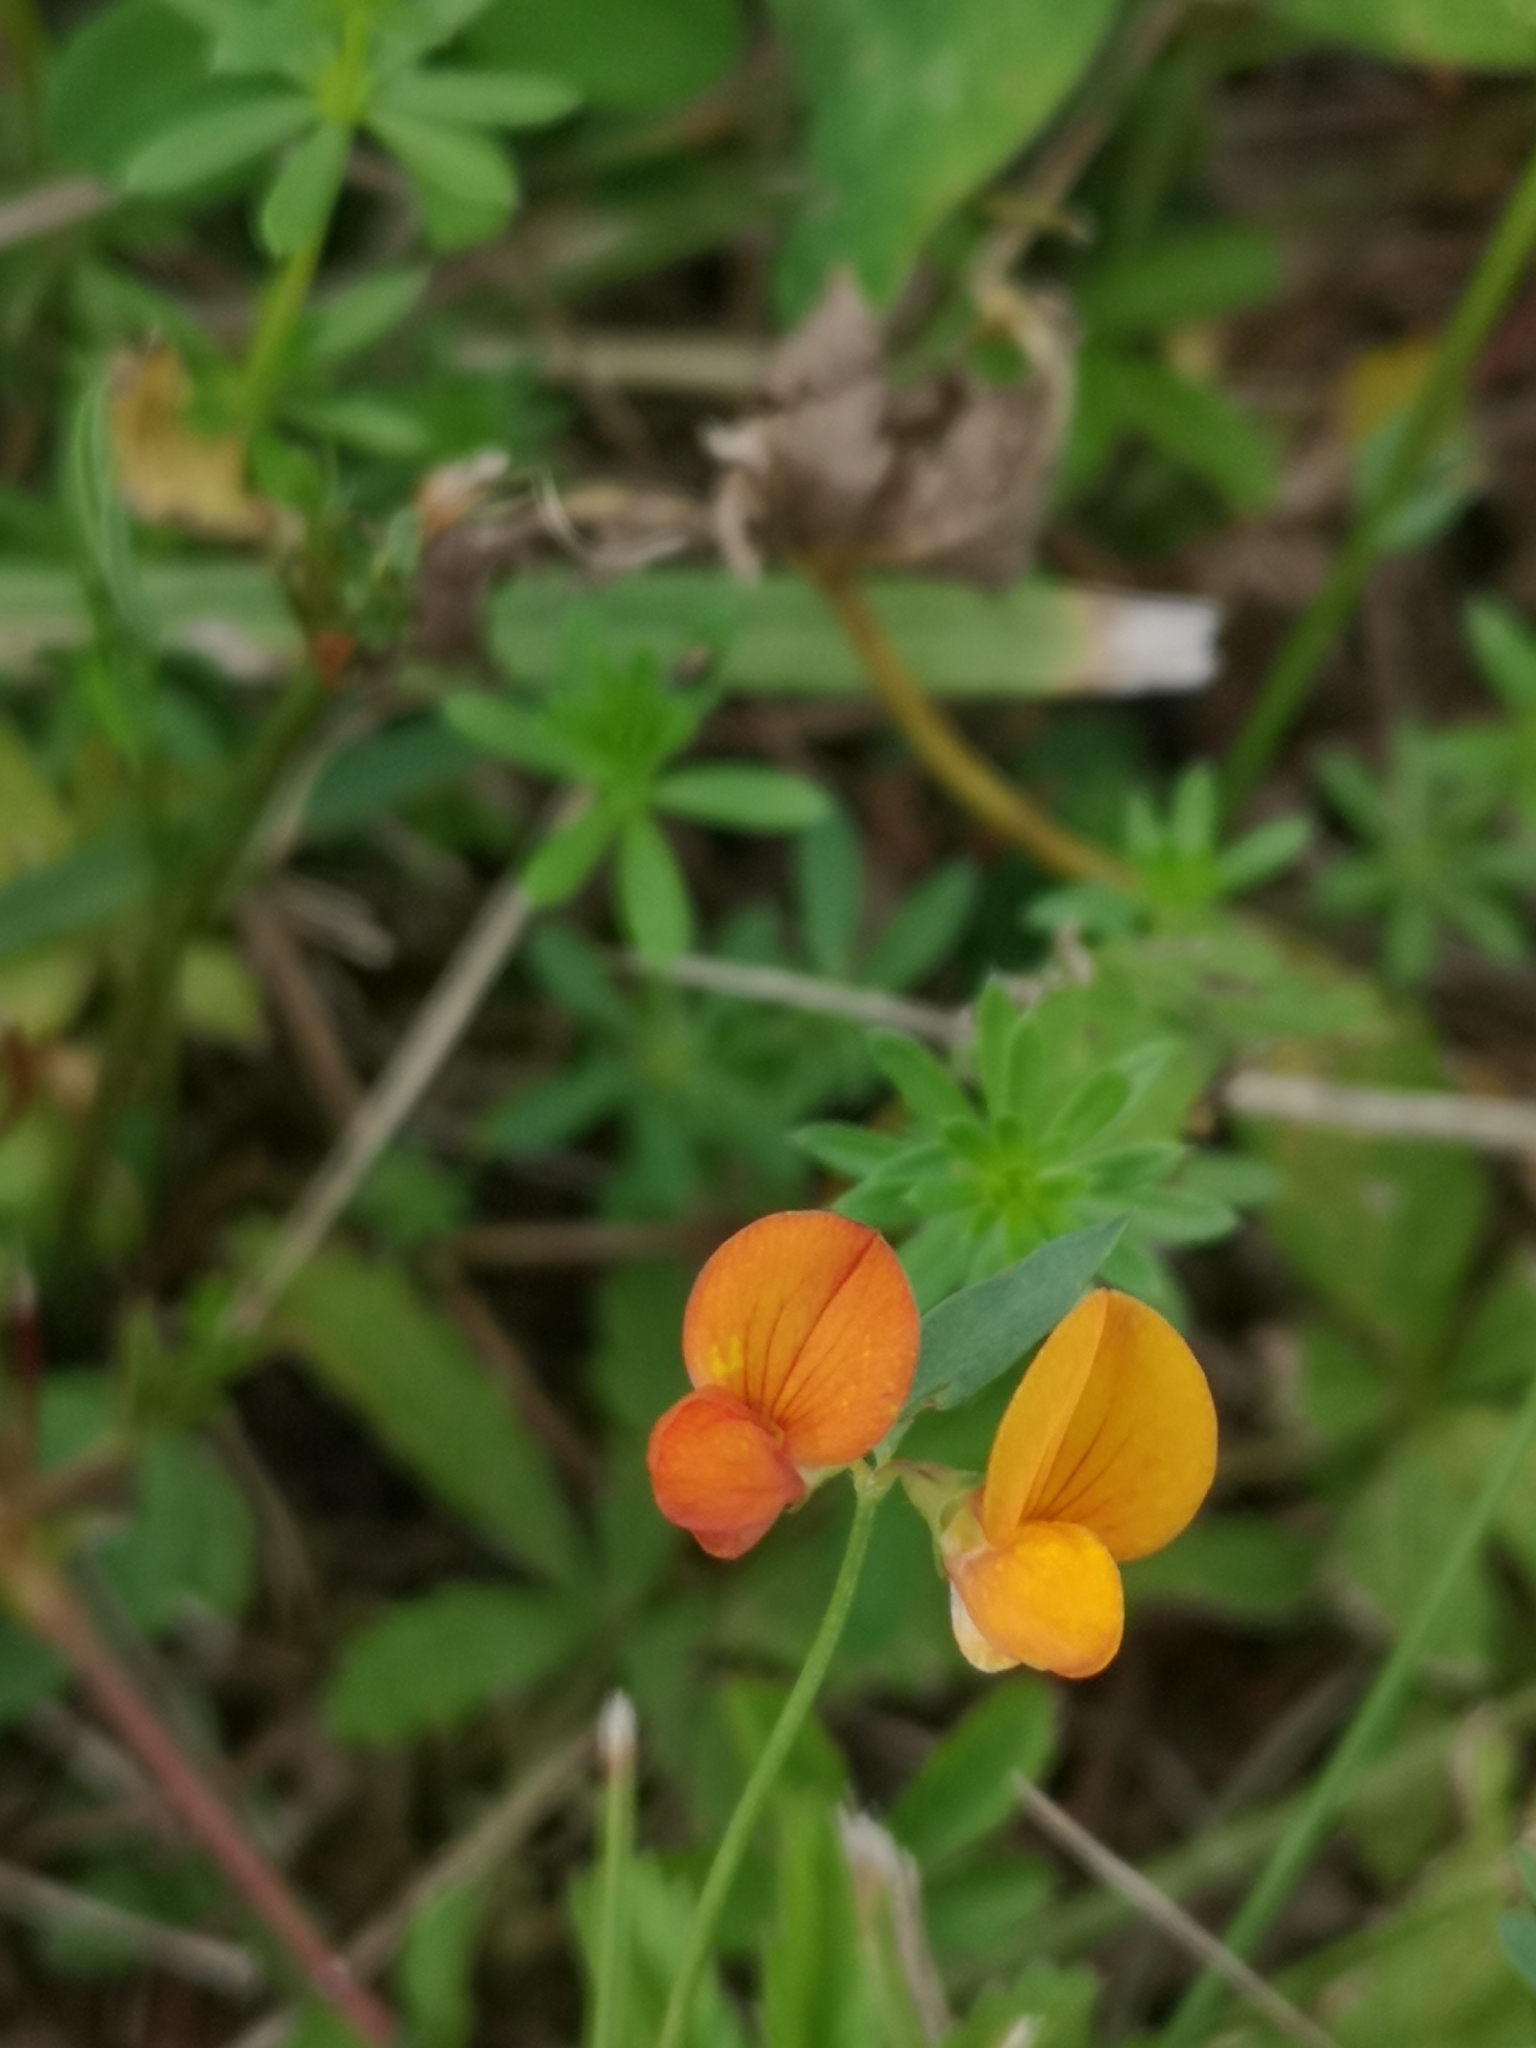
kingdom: Plantae
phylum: Tracheophyta
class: Magnoliopsida
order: Fabales
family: Fabaceae
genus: Lotus
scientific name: Lotus corniculatus
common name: Common bird's-foot-trefoil
